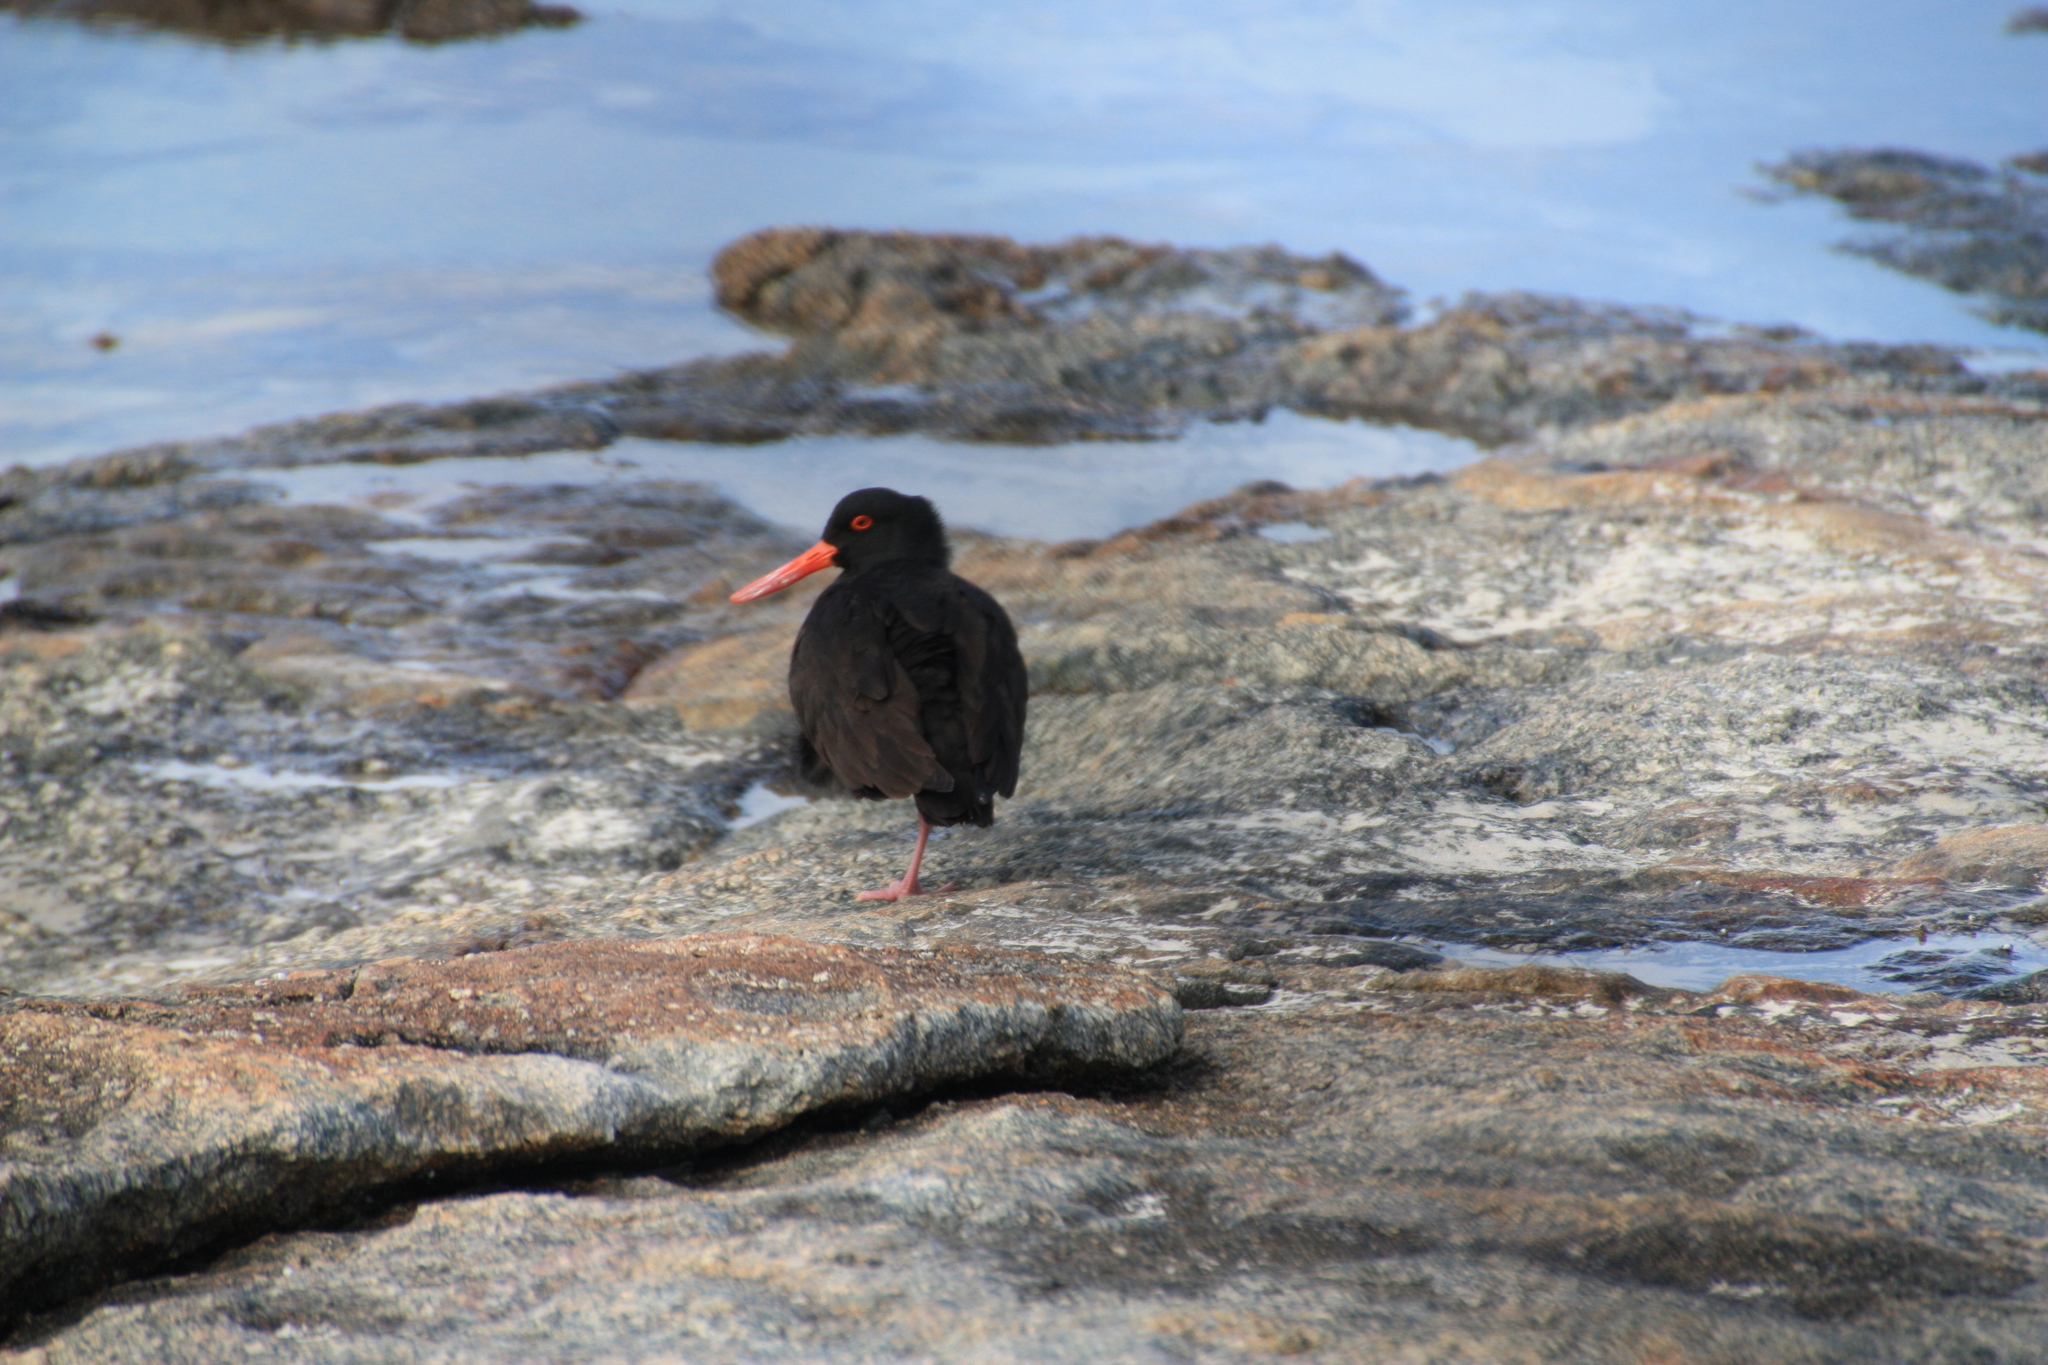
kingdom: Animalia
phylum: Chordata
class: Aves
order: Charadriiformes
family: Haematopodidae
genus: Haematopus
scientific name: Haematopus fuliginosus
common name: Sooty oystercatcher
